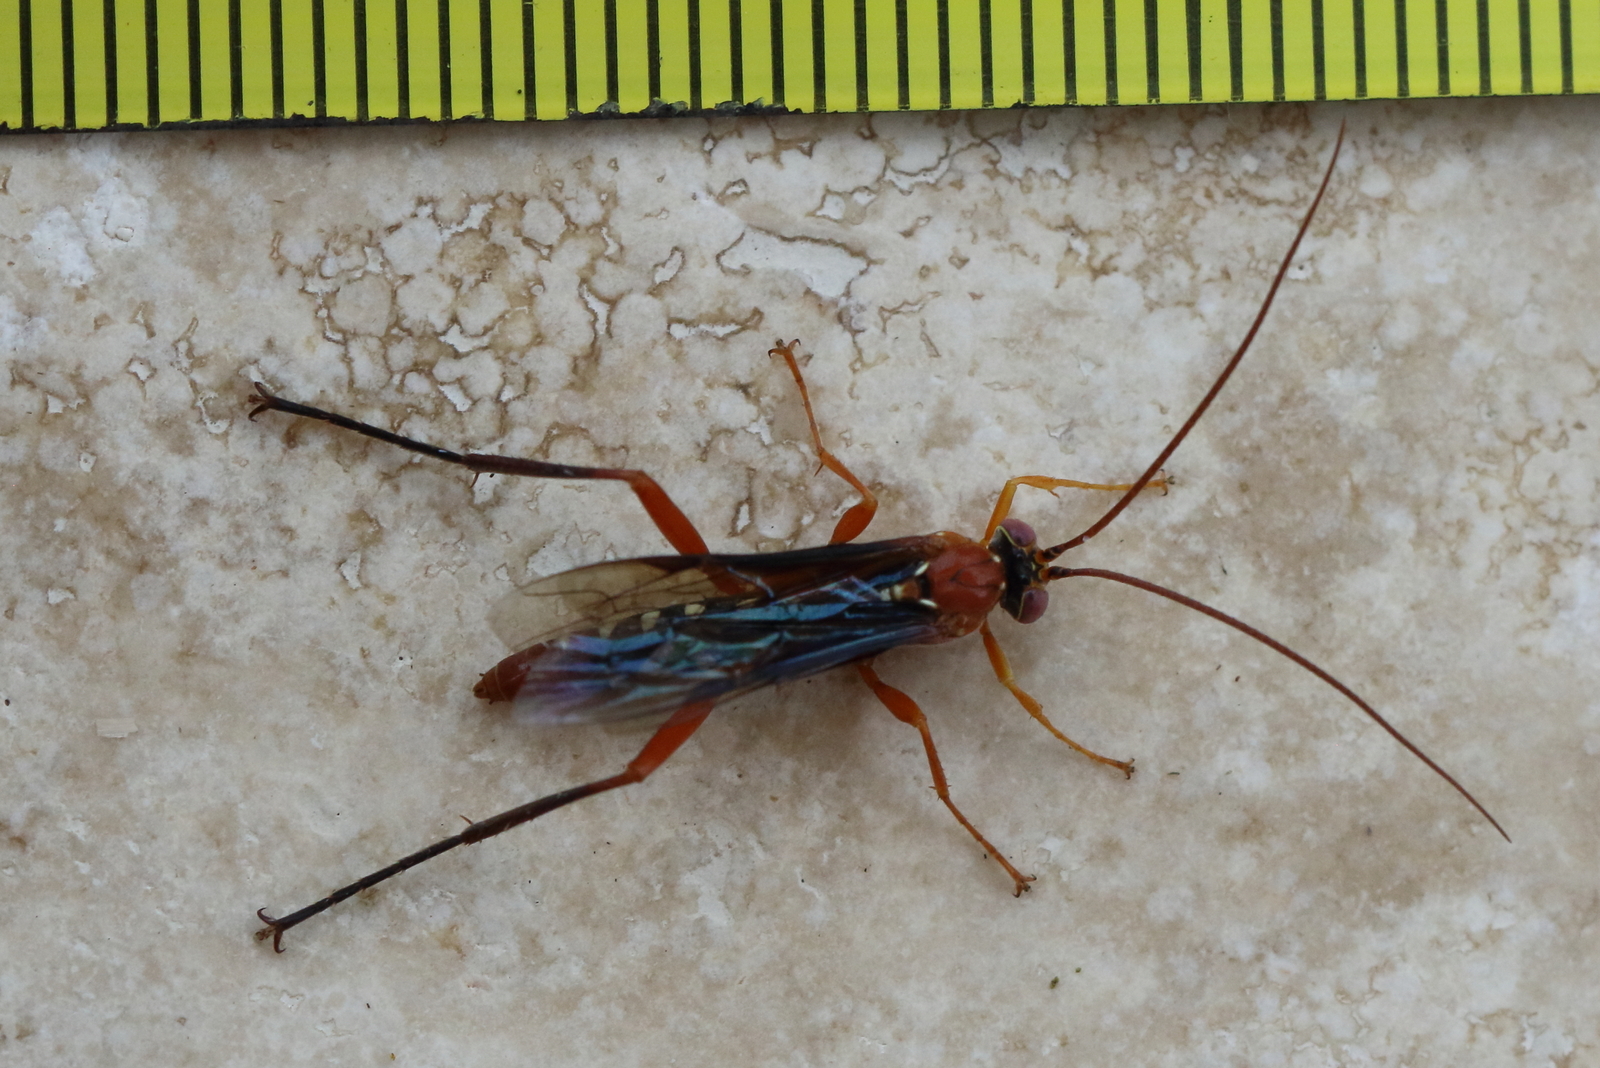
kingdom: Animalia
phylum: Arthropoda
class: Insecta
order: Hymenoptera
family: Ichneumonidae
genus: Lissopimpla
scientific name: Lissopimpla excelsa
